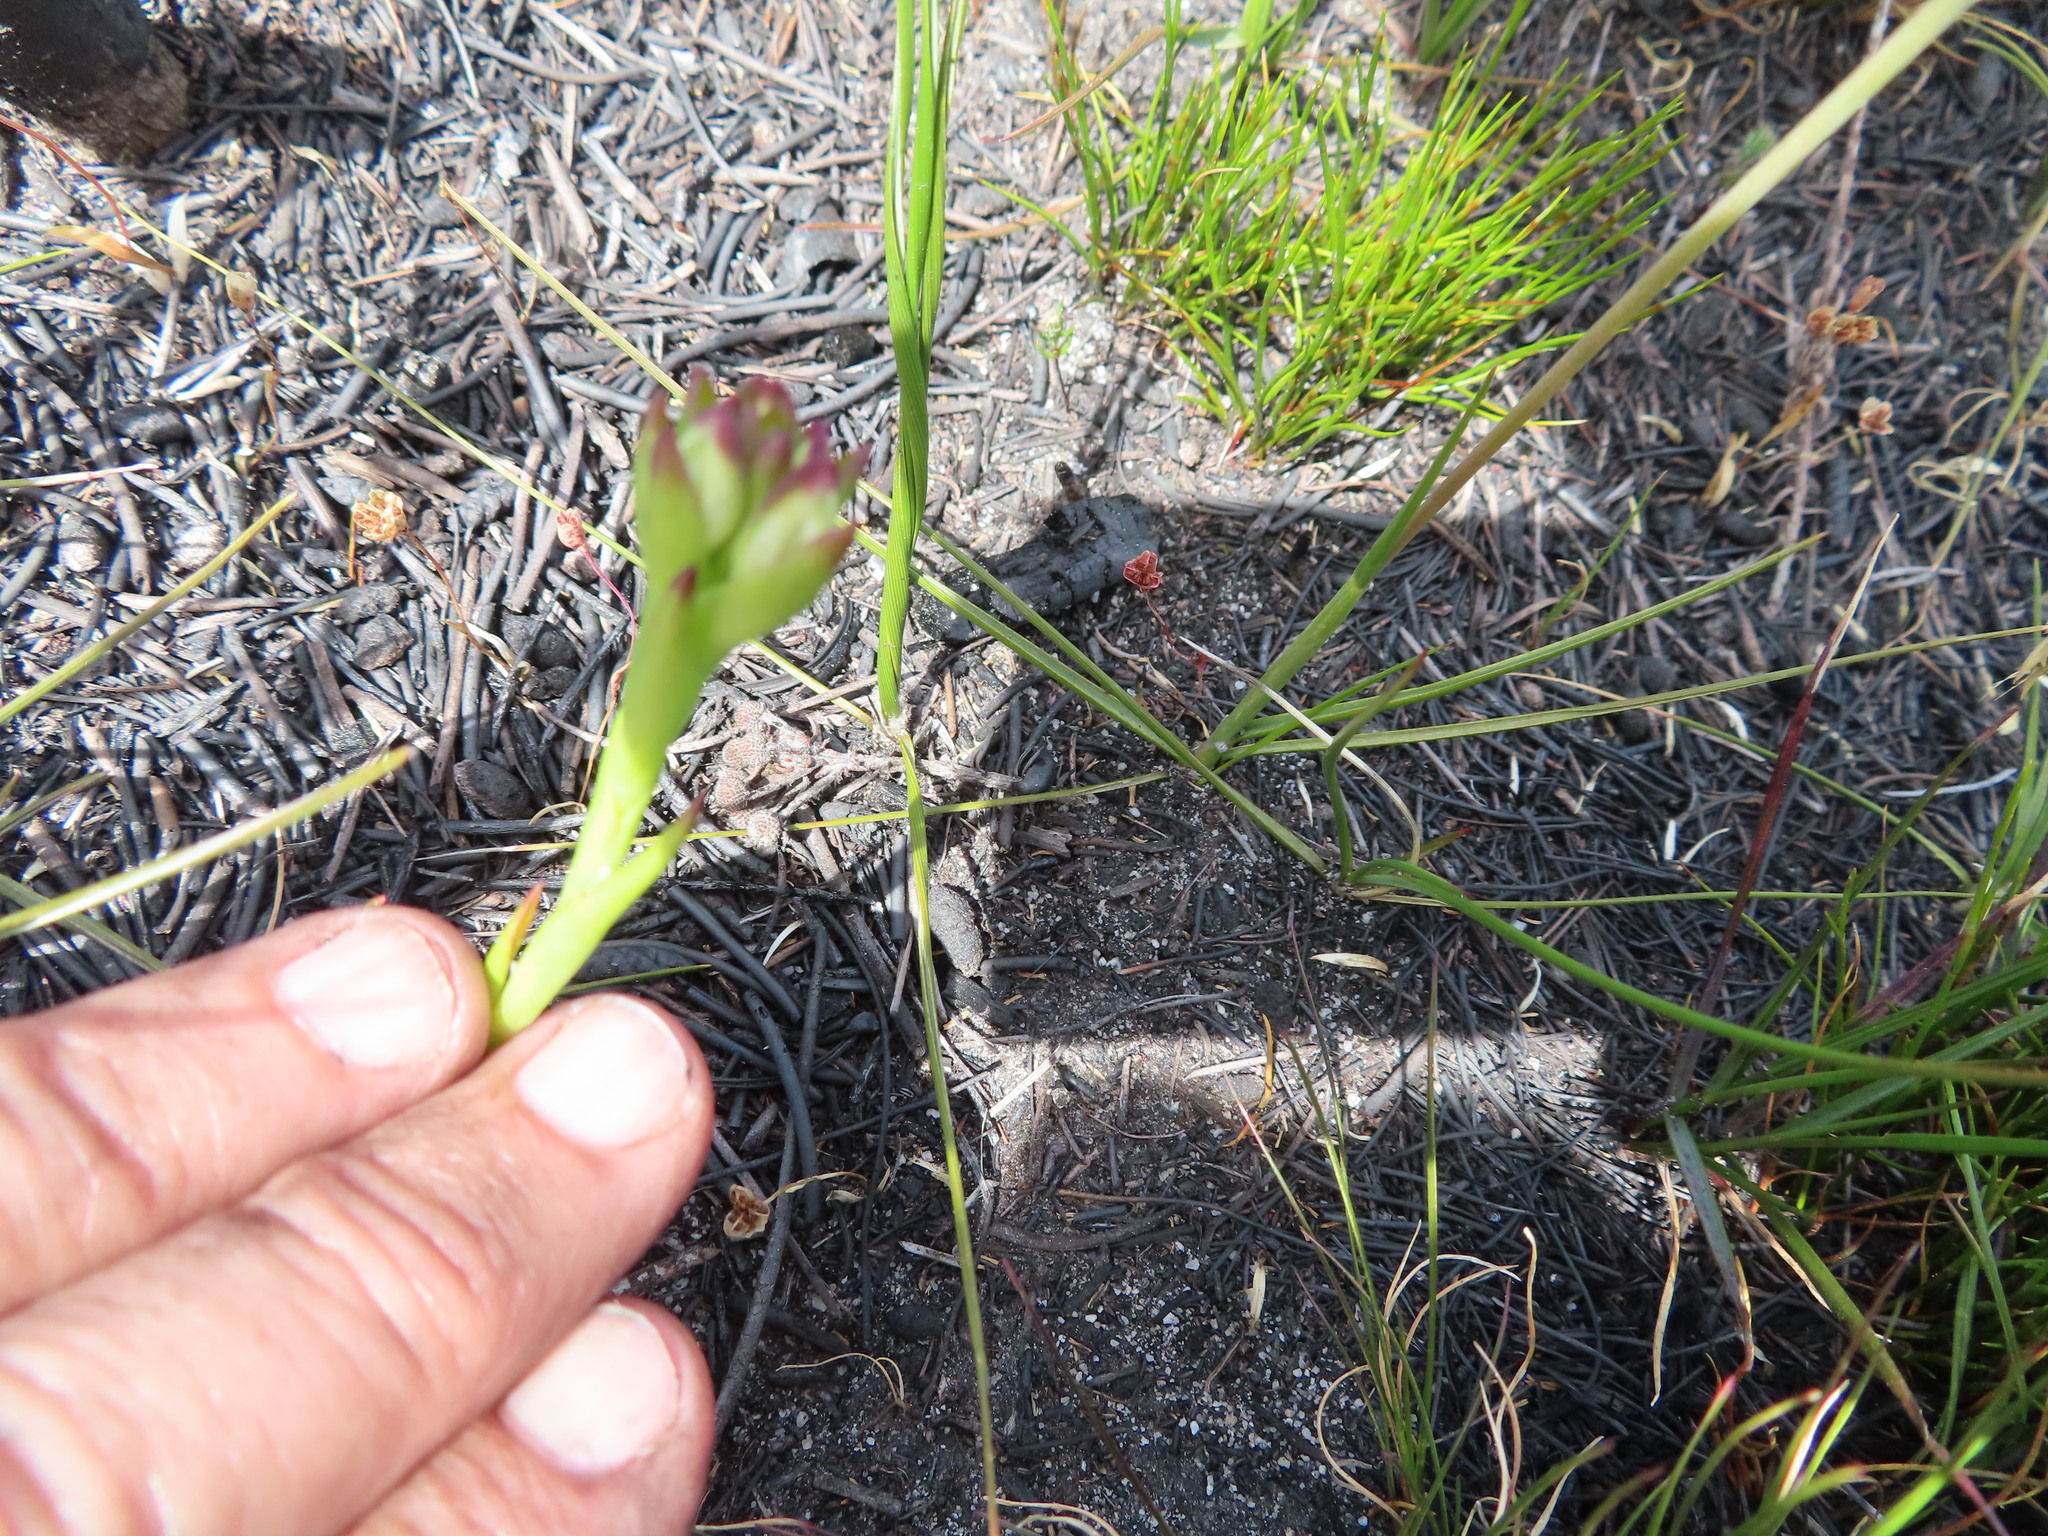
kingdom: Plantae
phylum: Tracheophyta
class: Liliopsida
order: Asparagales
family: Orchidaceae
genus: Disa
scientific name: Disa bivalvata
